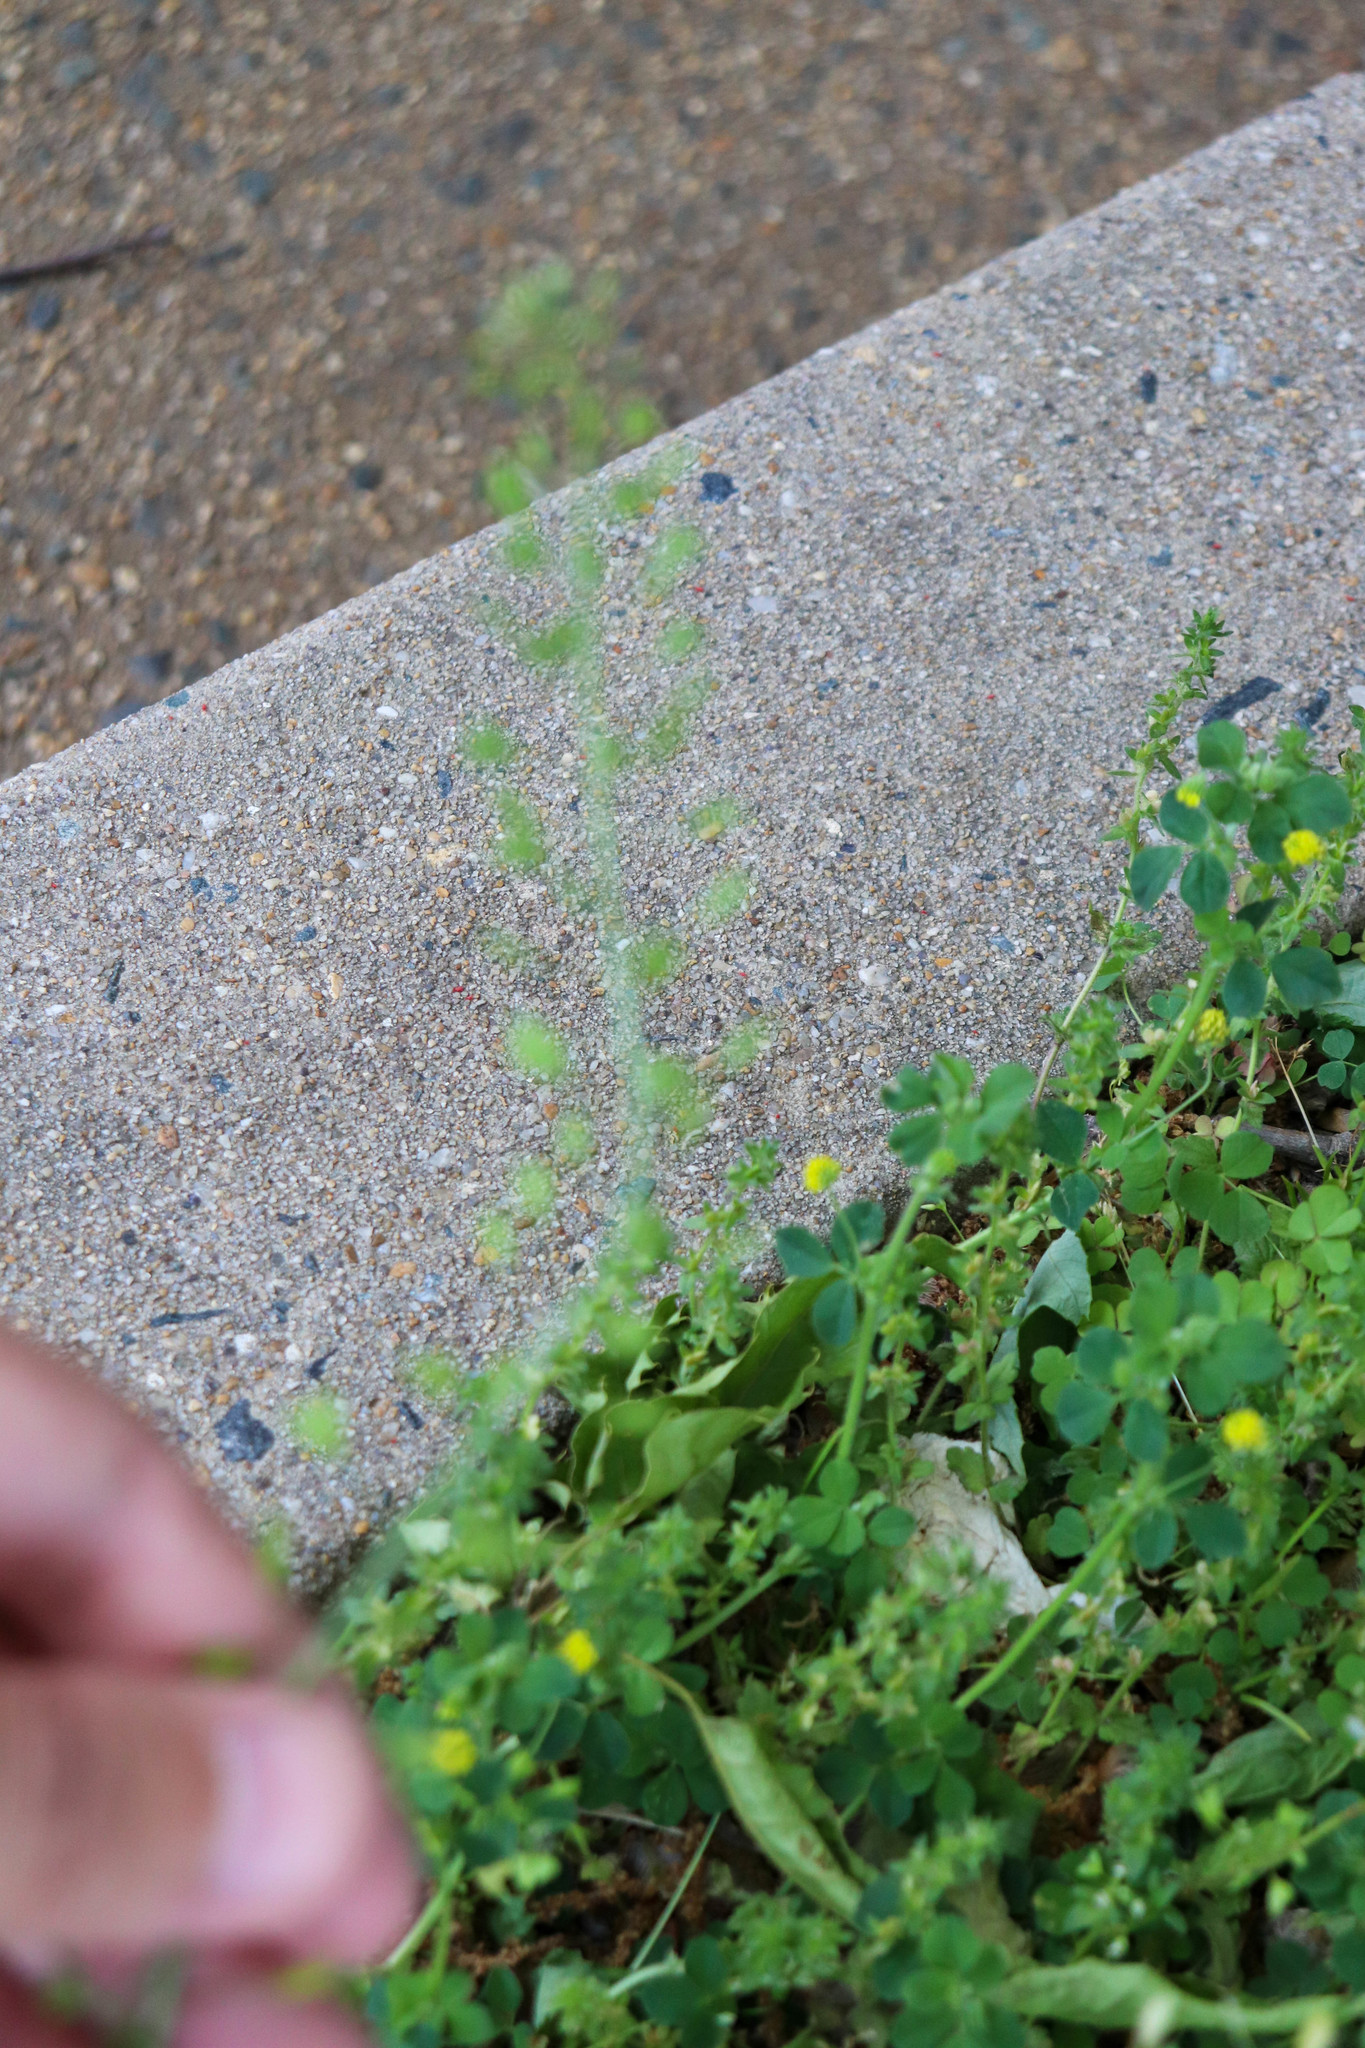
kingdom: Plantae
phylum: Tracheophyta
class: Magnoliopsida
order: Brassicales
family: Brassicaceae
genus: Capsella
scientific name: Capsella bursa-pastoris
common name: Shepherd's purse
